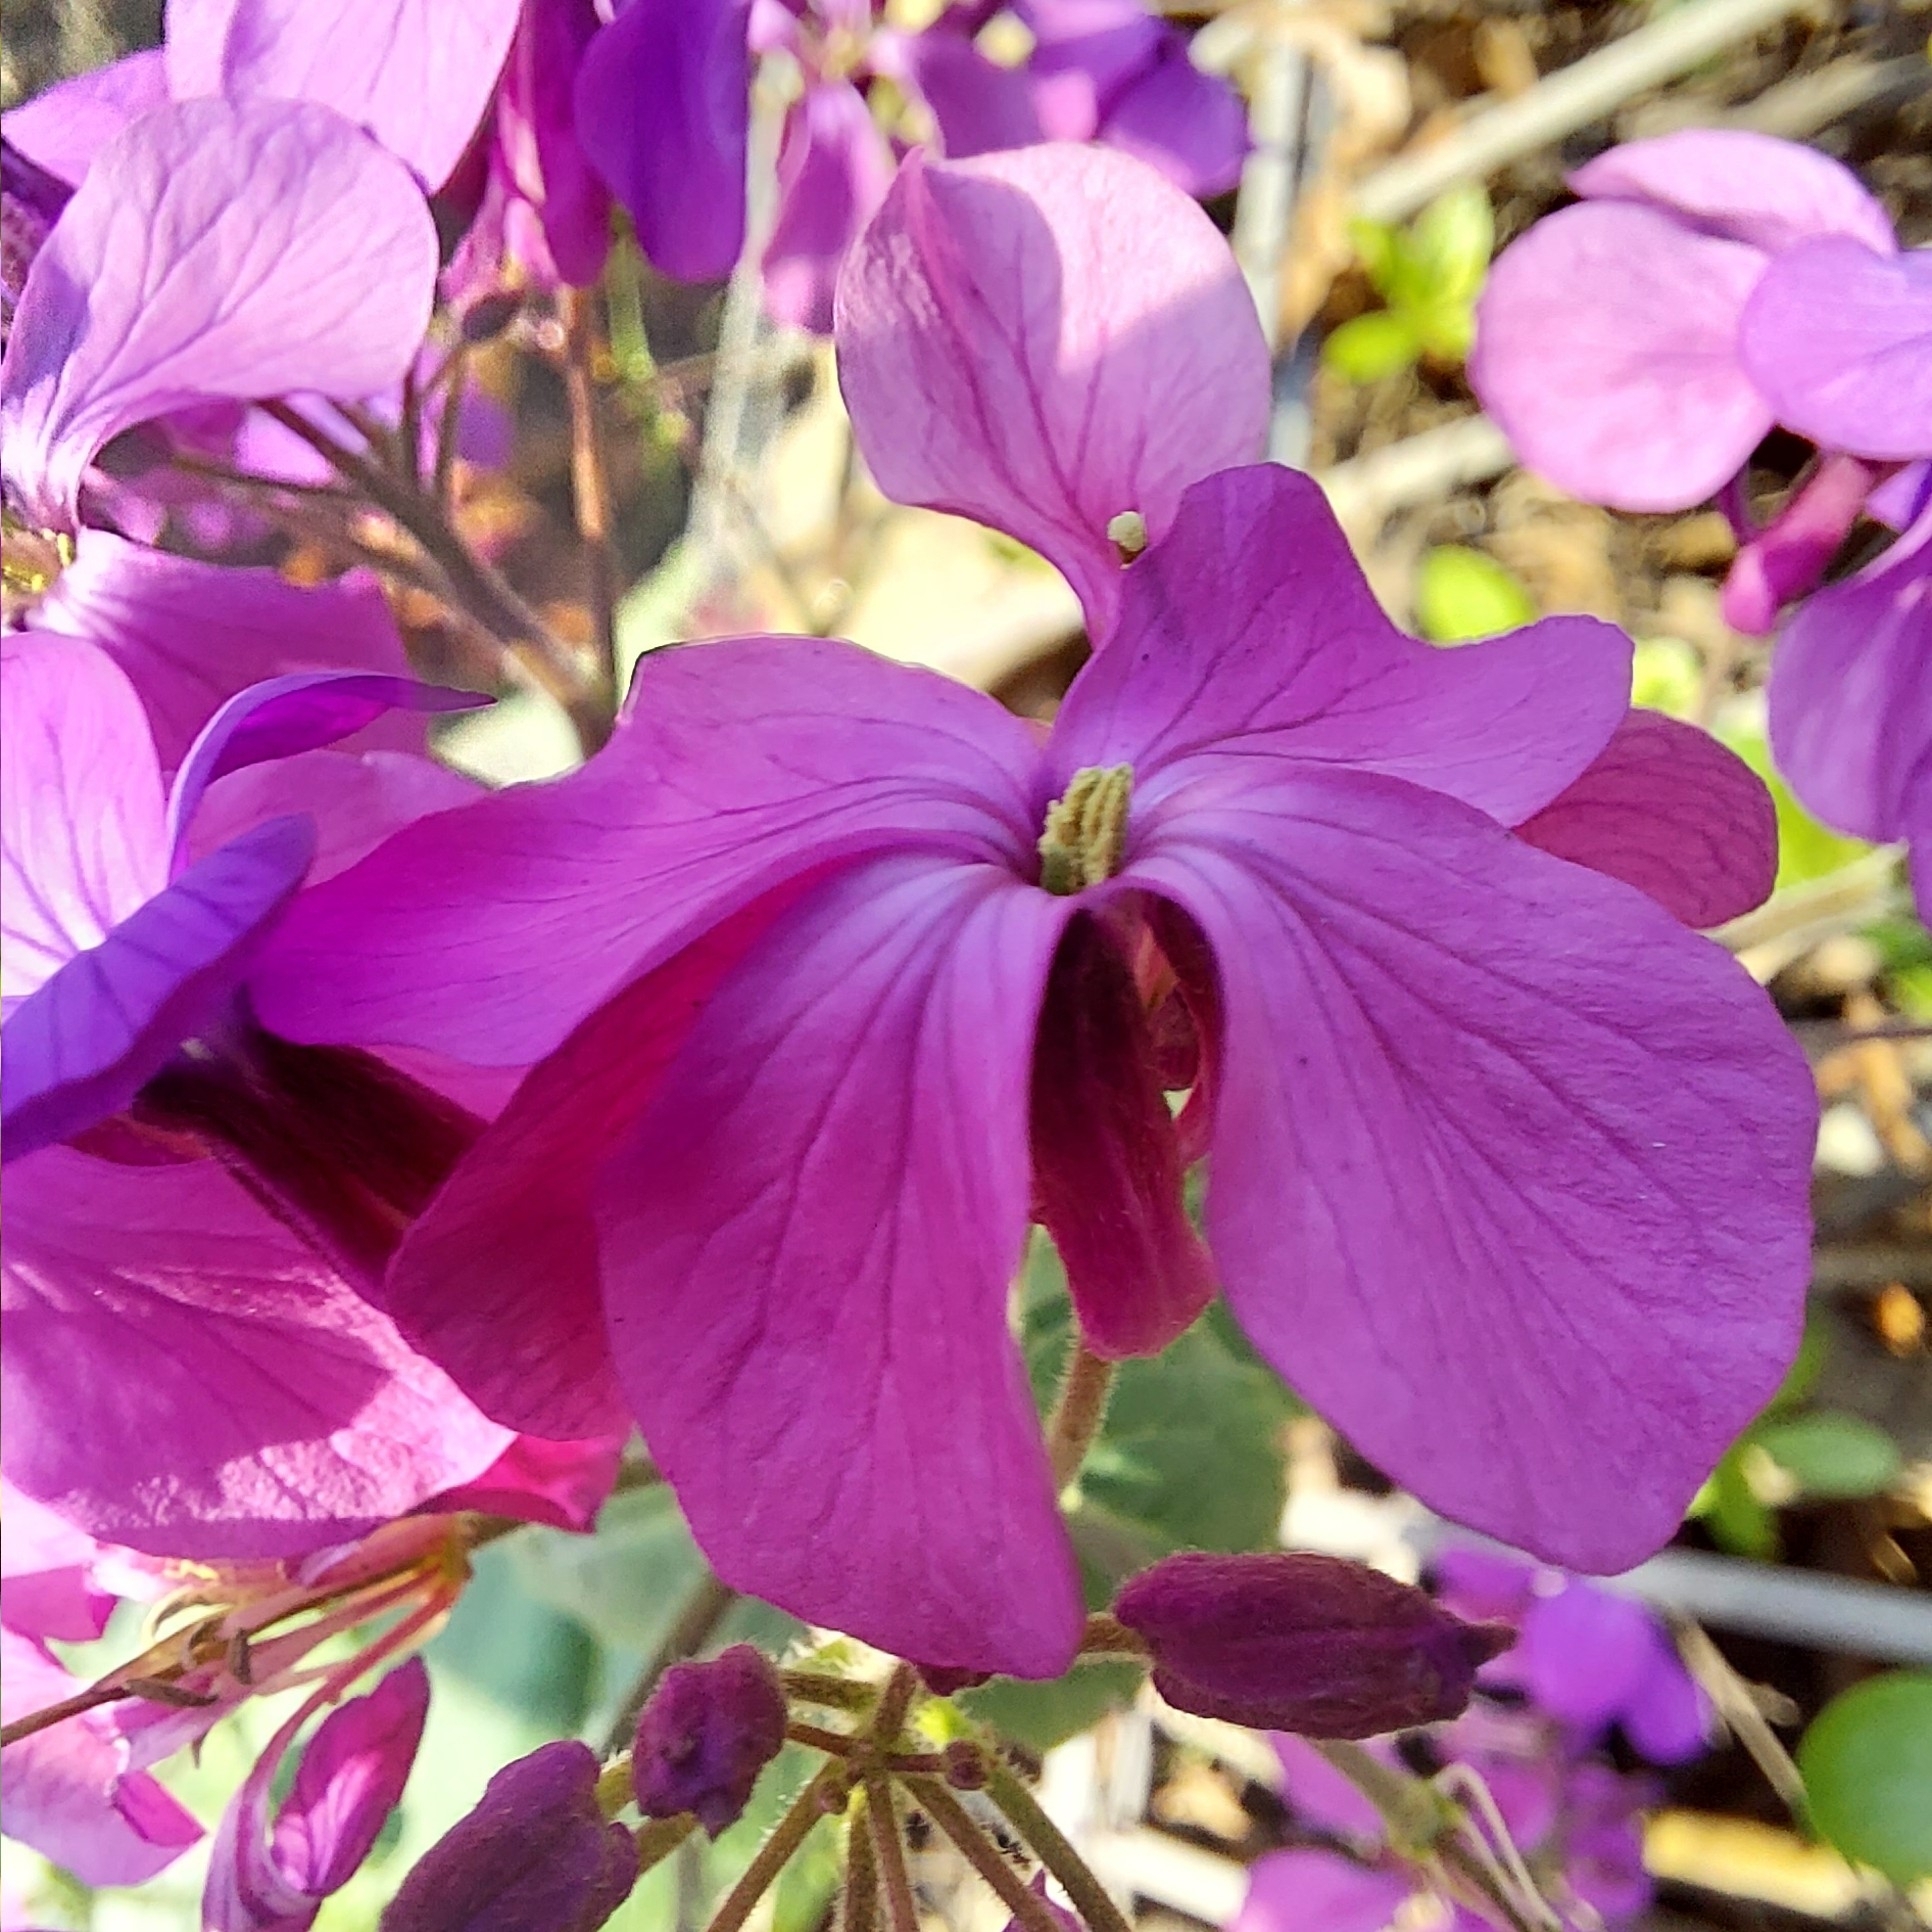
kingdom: Plantae
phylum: Tracheophyta
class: Magnoliopsida
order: Brassicales
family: Brassicaceae
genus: Lunaria
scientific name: Lunaria annua
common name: Honesty
